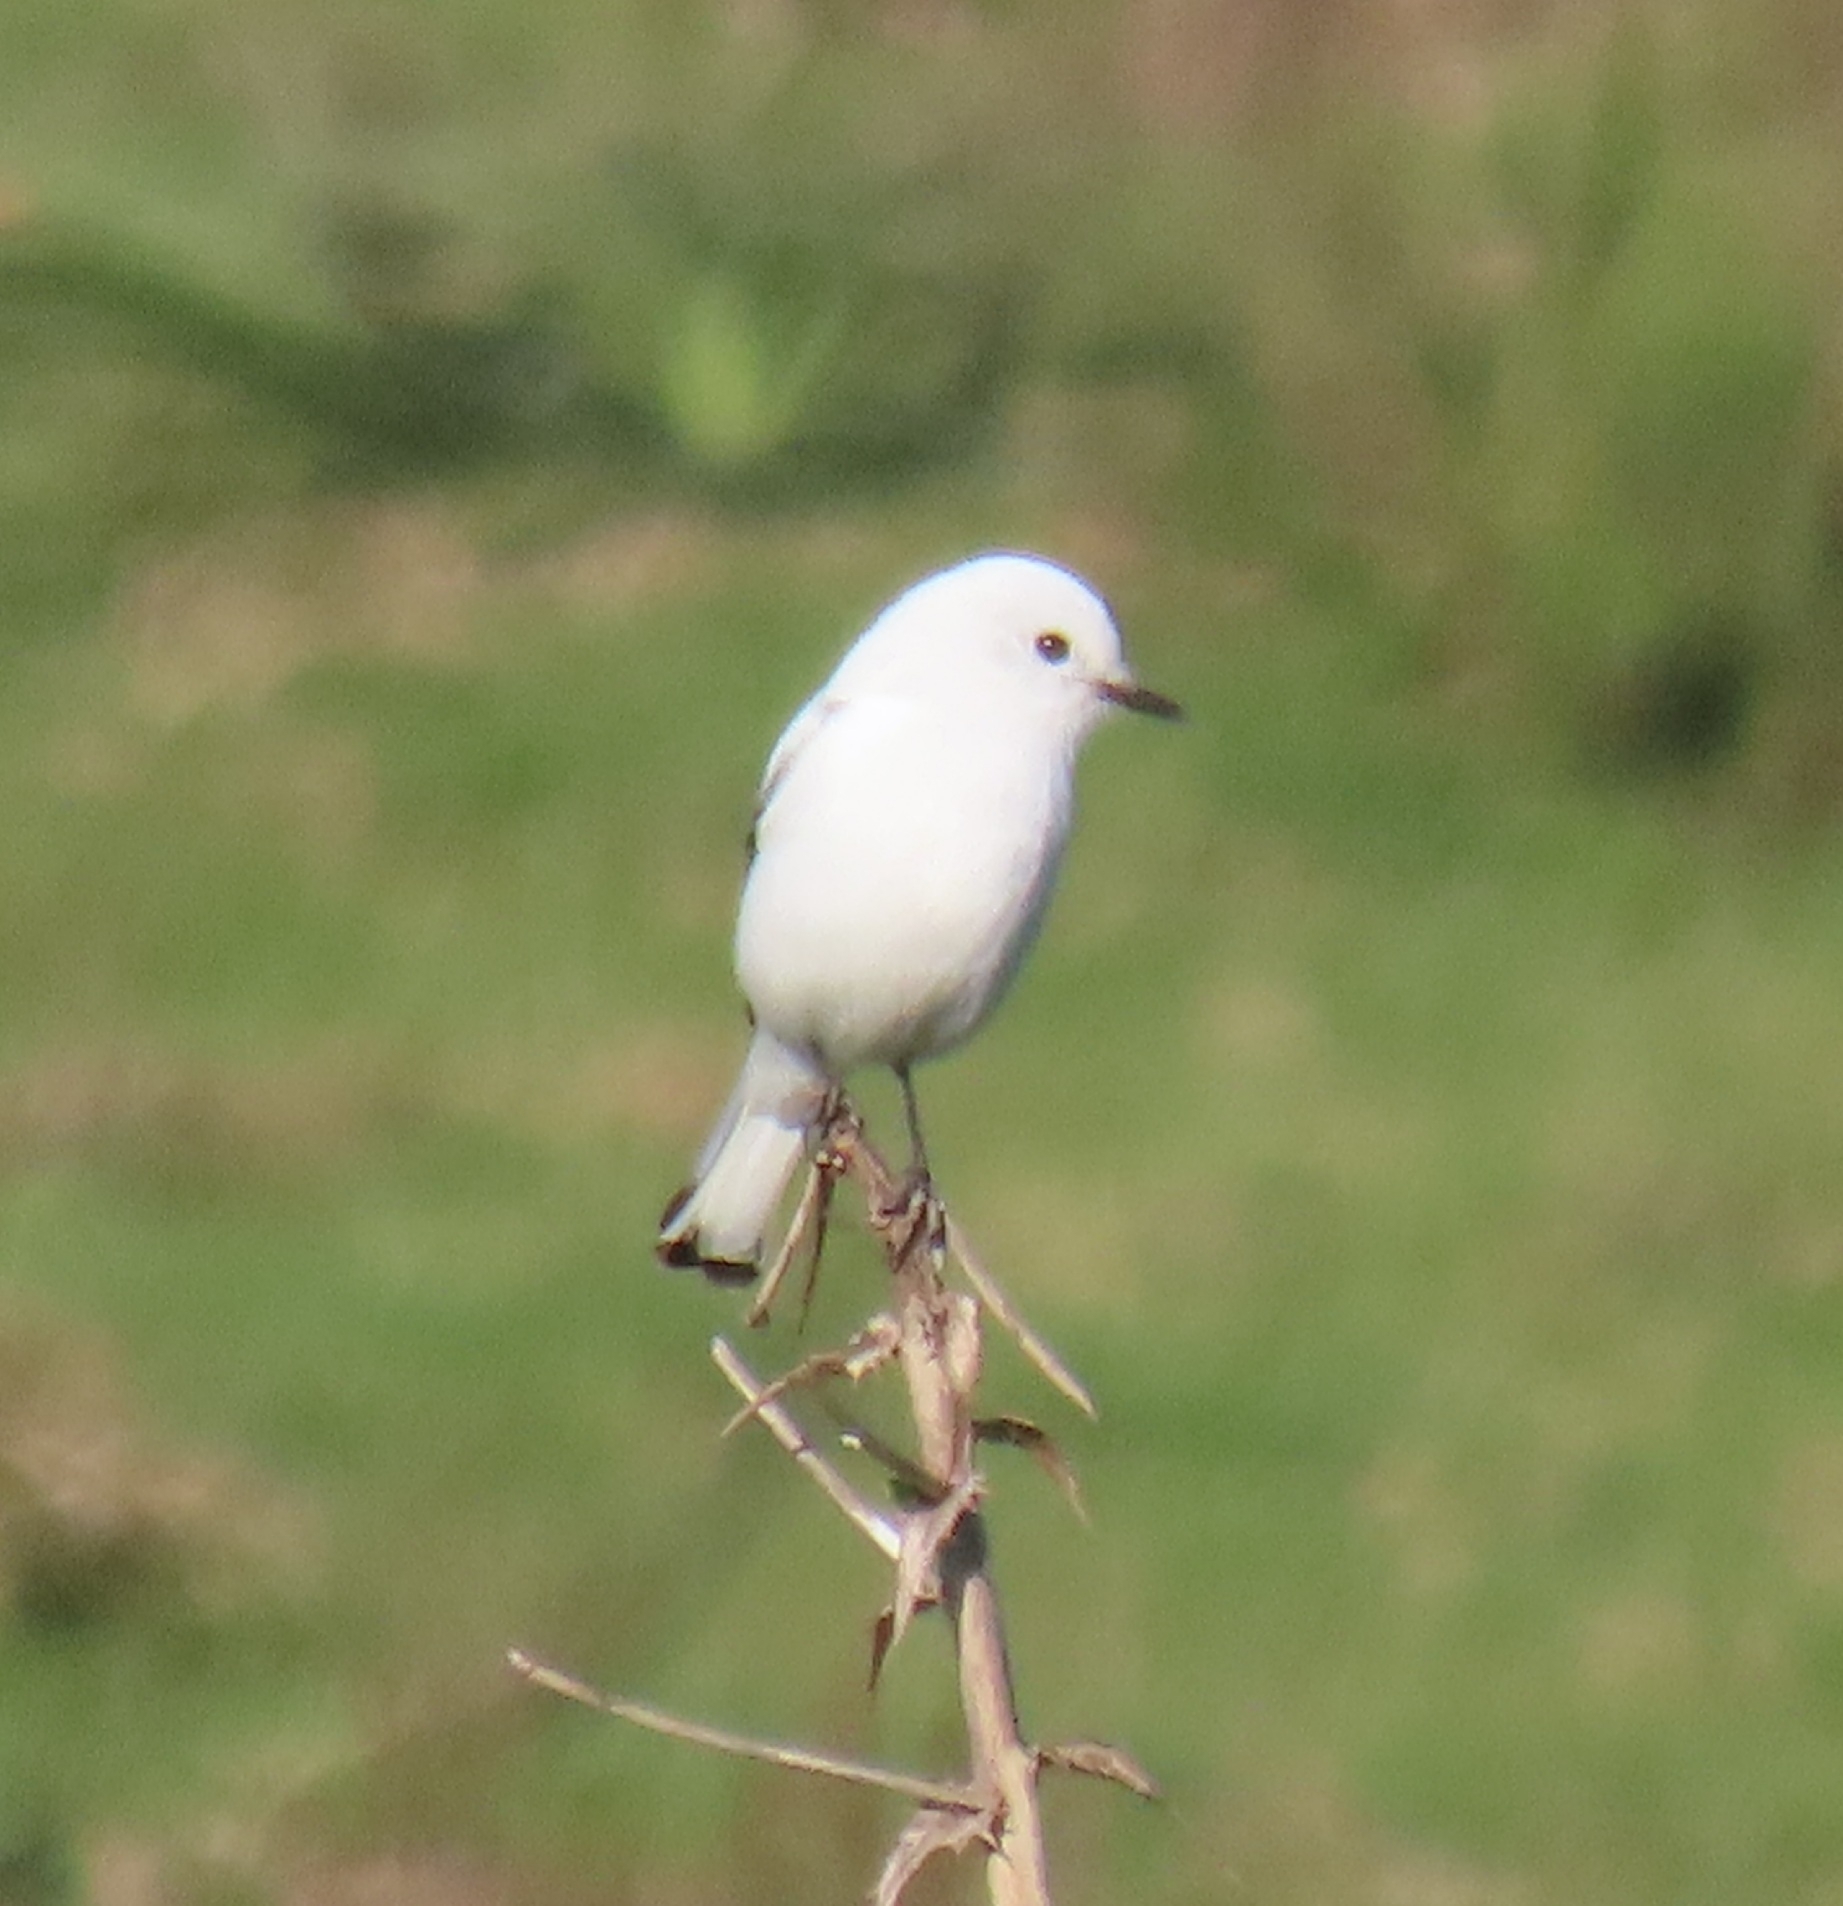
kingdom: Animalia
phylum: Chordata
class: Aves
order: Passeriformes
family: Tyrannidae
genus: Xolmis
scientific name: Xolmis irupero
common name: White monjita
